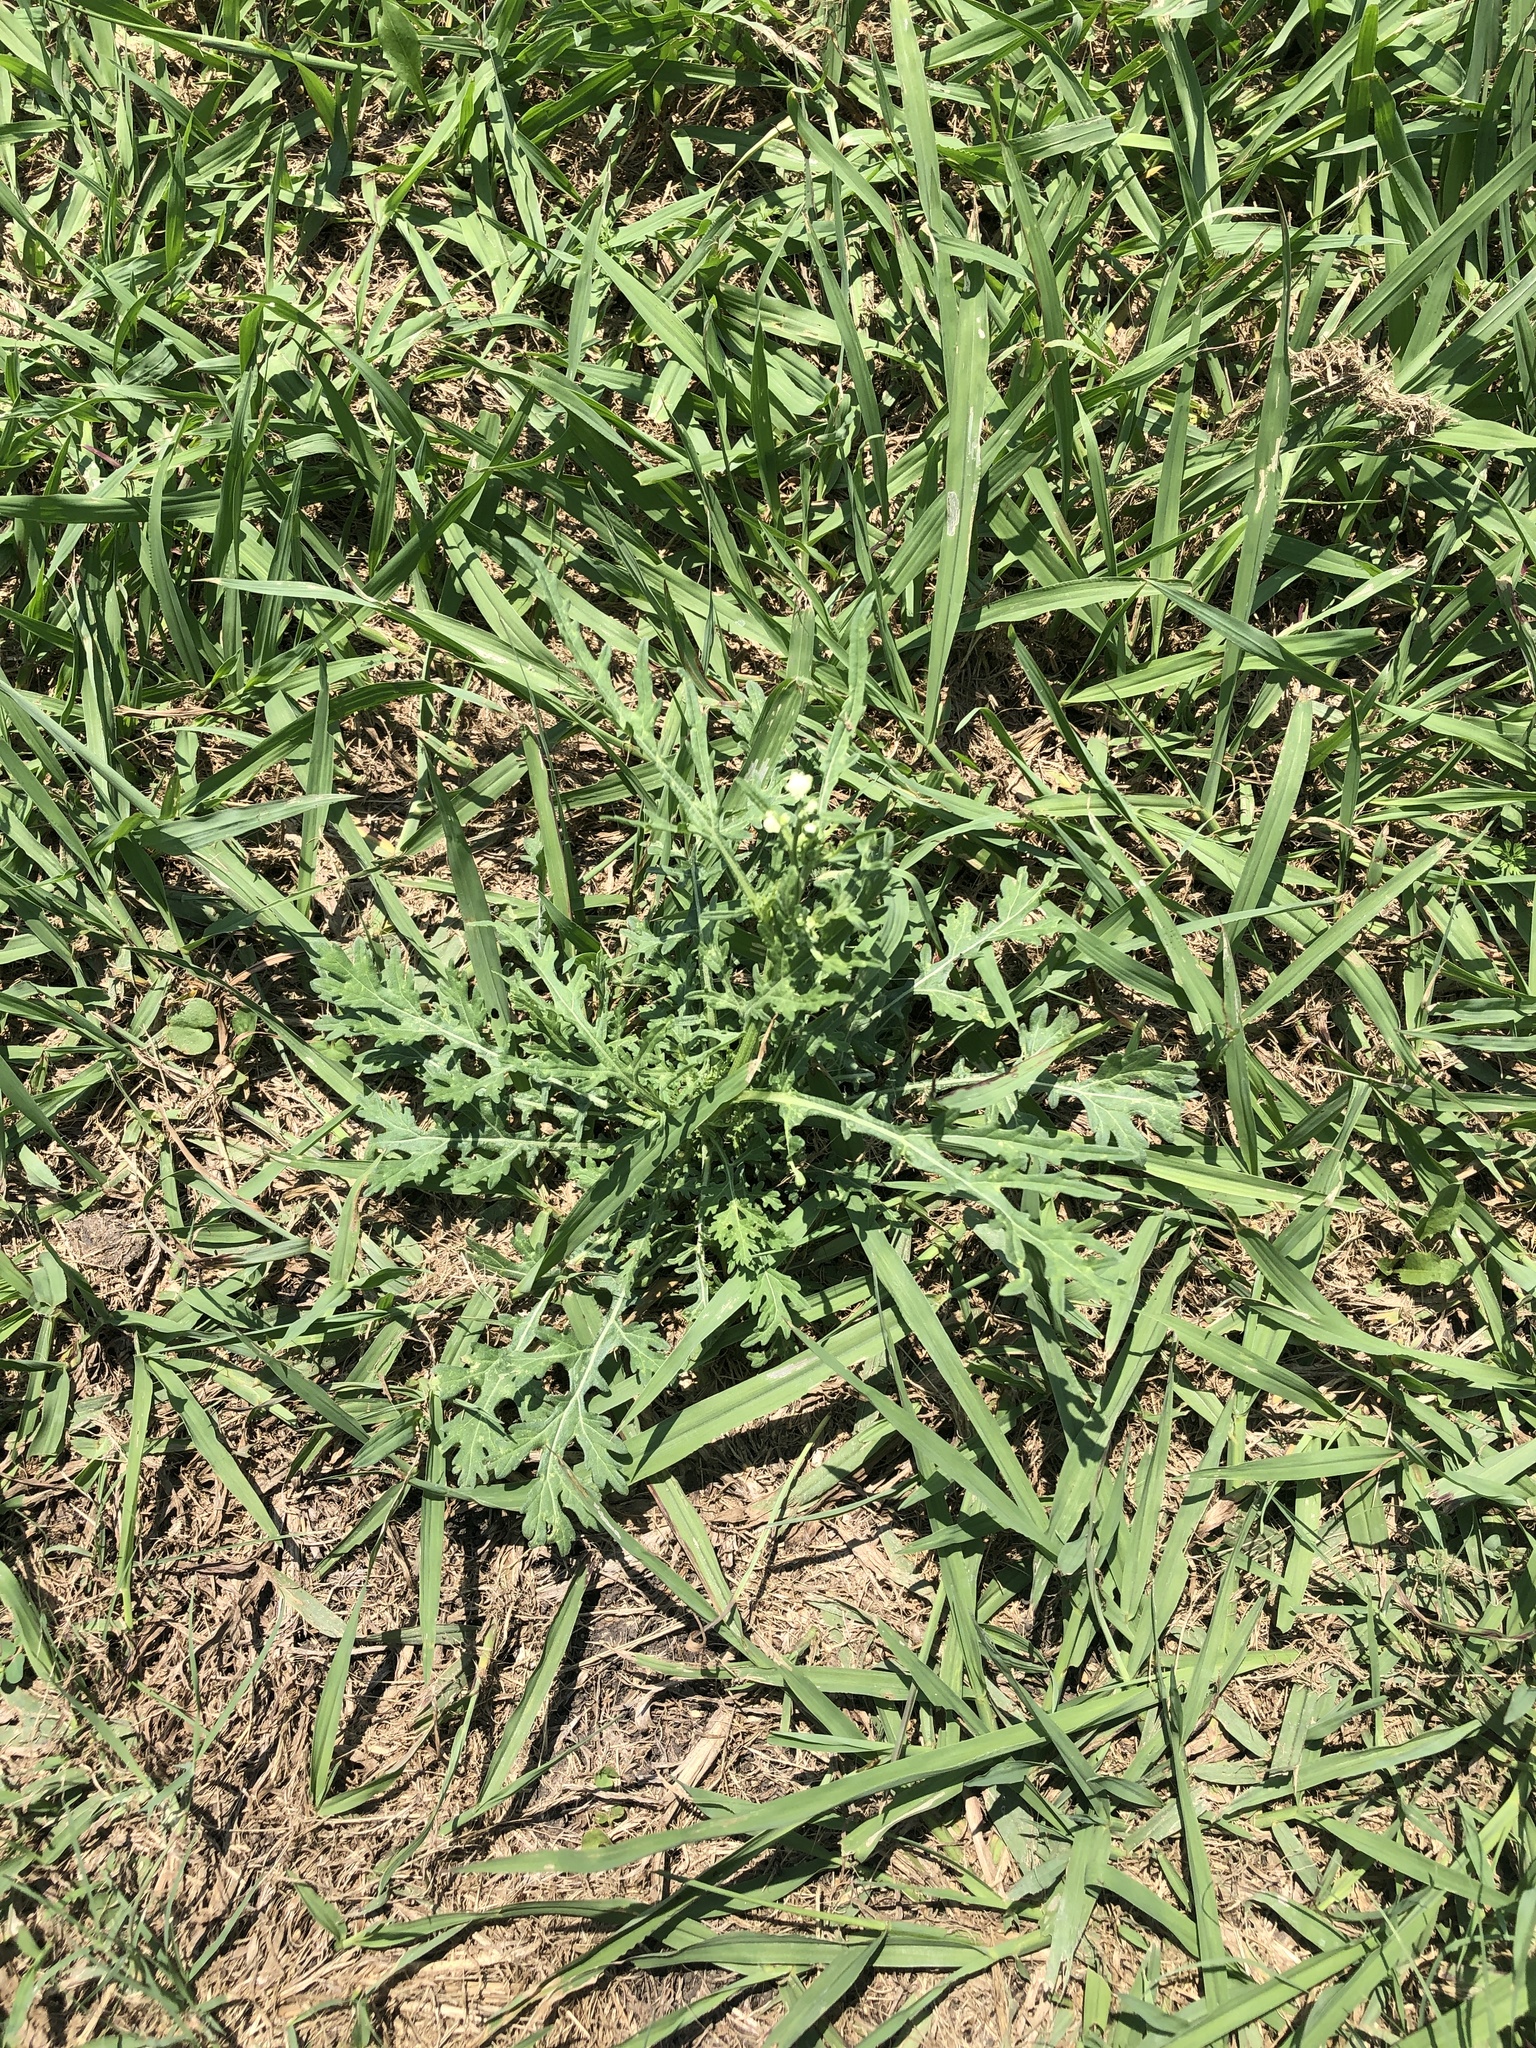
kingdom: Plantae
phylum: Tracheophyta
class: Magnoliopsida
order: Asterales
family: Asteraceae
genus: Parthenium
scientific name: Parthenium hysterophorus
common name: Santa maria feverfew
